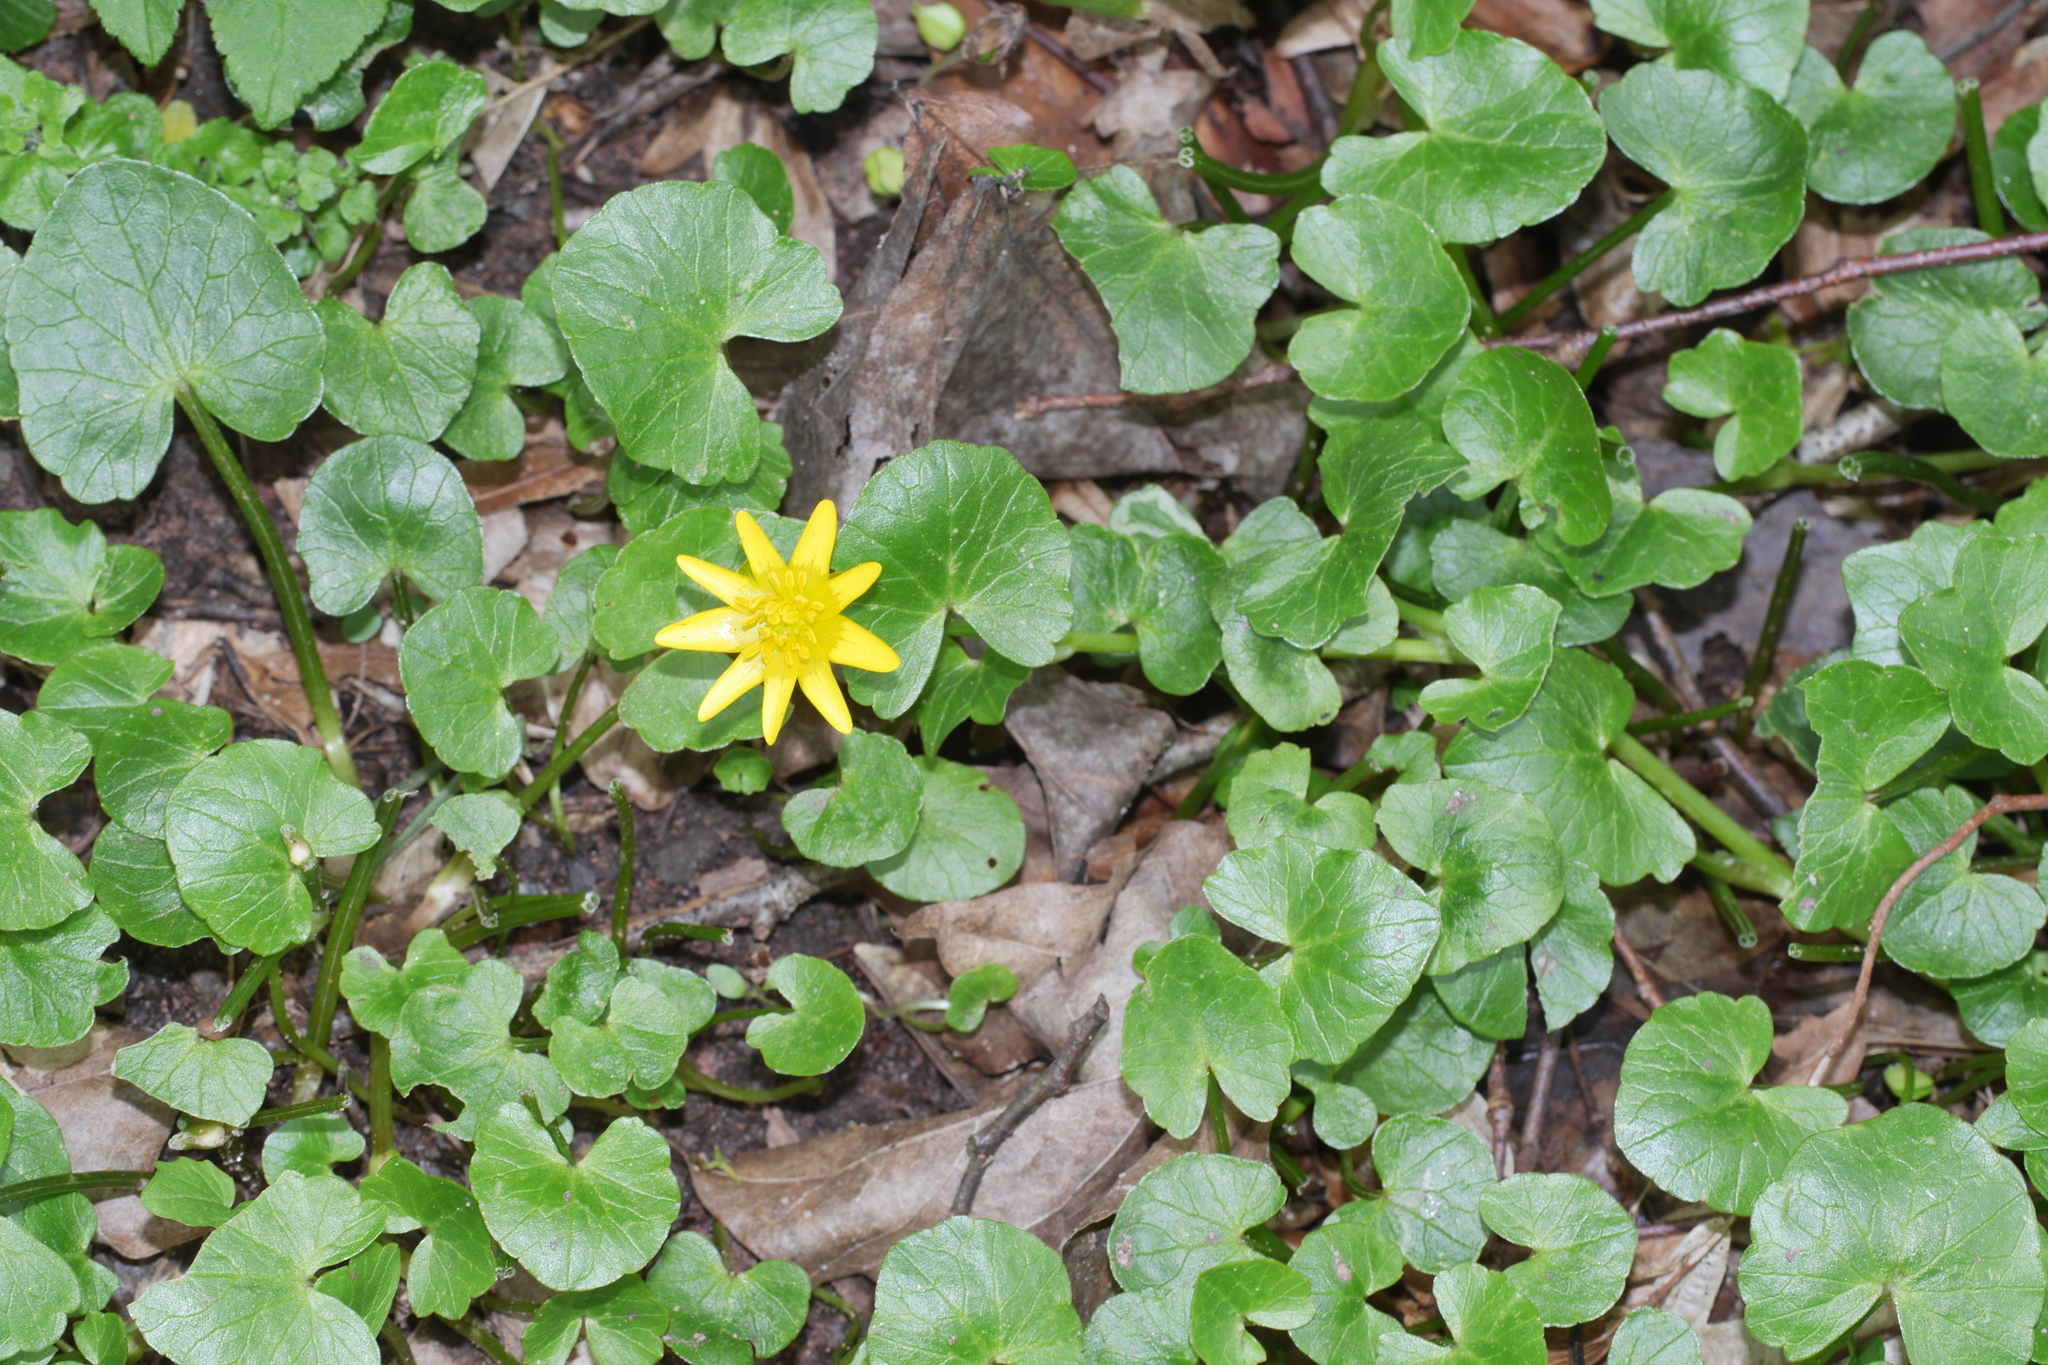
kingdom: Plantae
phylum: Tracheophyta
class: Magnoliopsida
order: Ranunculales
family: Ranunculaceae
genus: Ficaria
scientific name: Ficaria verna
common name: Lesser celandine
